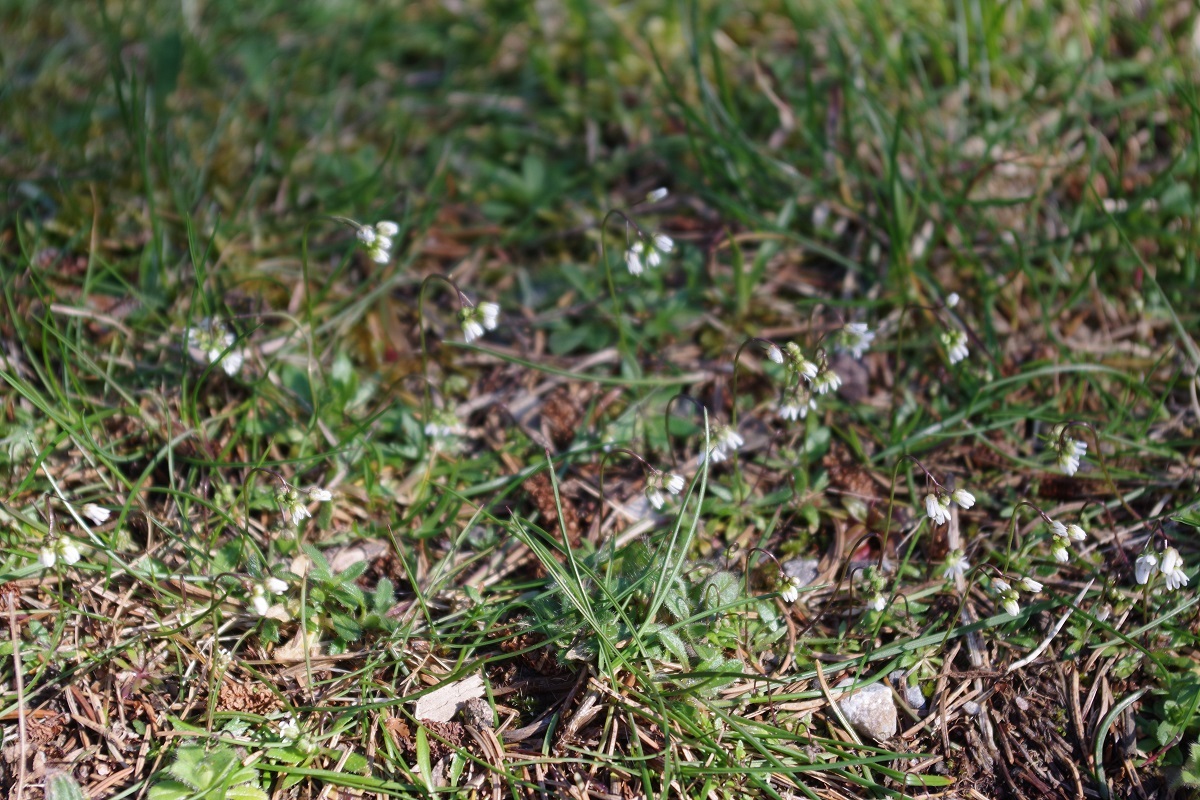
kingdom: Plantae
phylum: Tracheophyta
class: Magnoliopsida
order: Brassicales
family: Brassicaceae
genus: Draba
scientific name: Draba verna
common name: Spring draba
